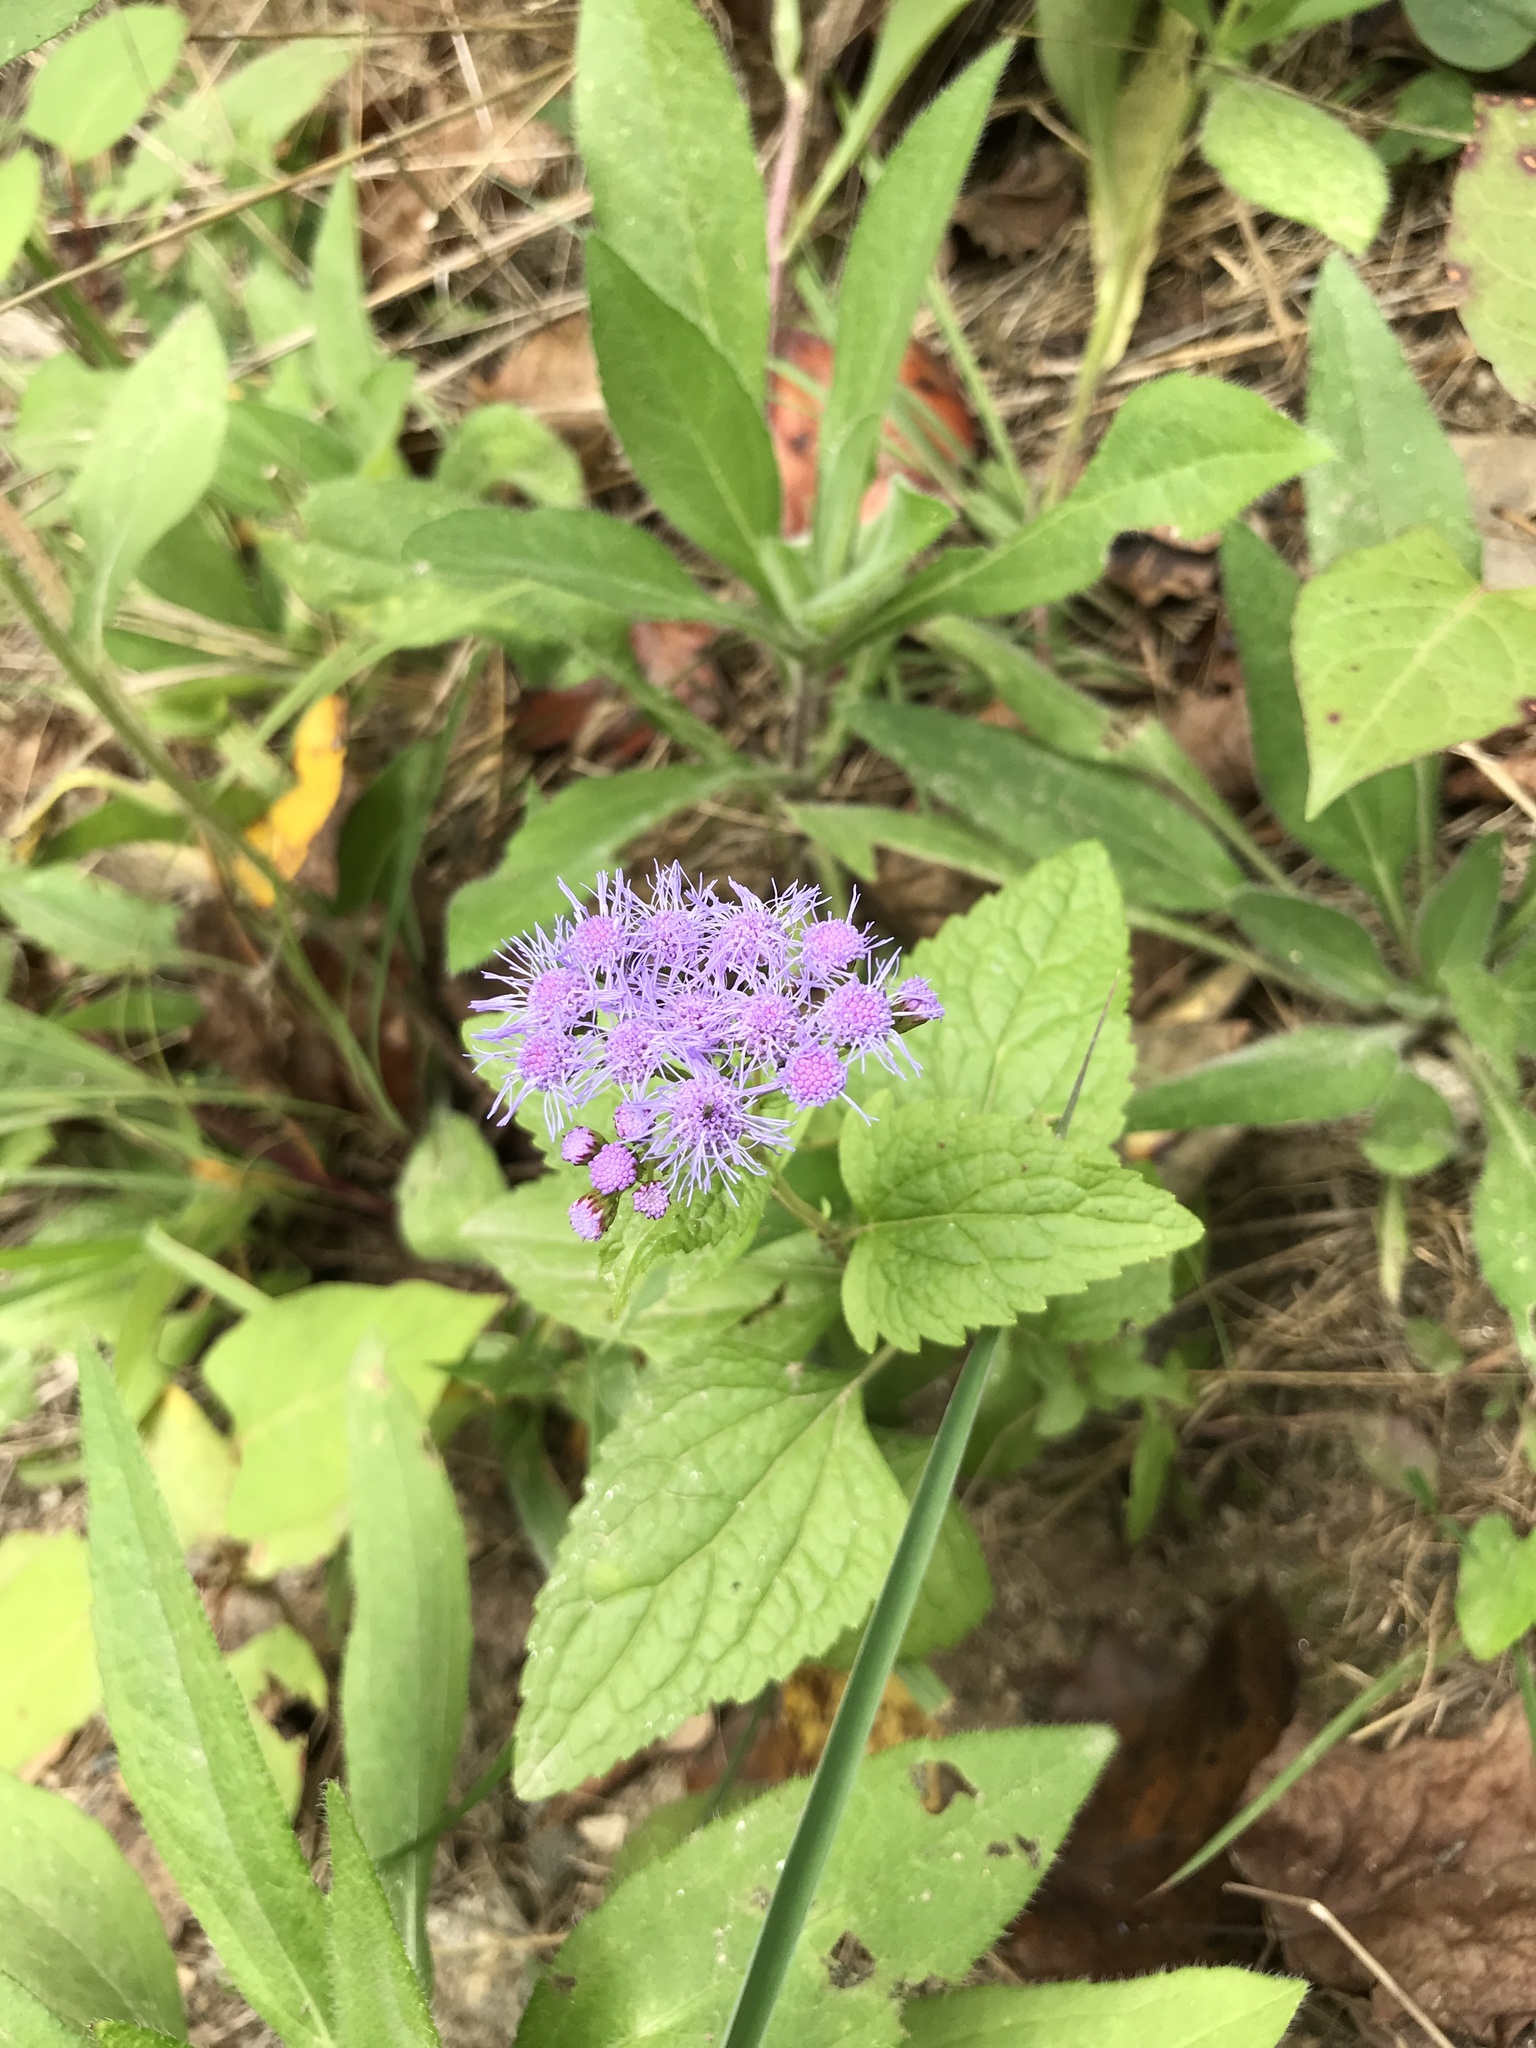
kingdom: Plantae
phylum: Tracheophyta
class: Magnoliopsida
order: Asterales
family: Asteraceae
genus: Conoclinium
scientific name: Conoclinium coelestinum
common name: Blue mistflower
